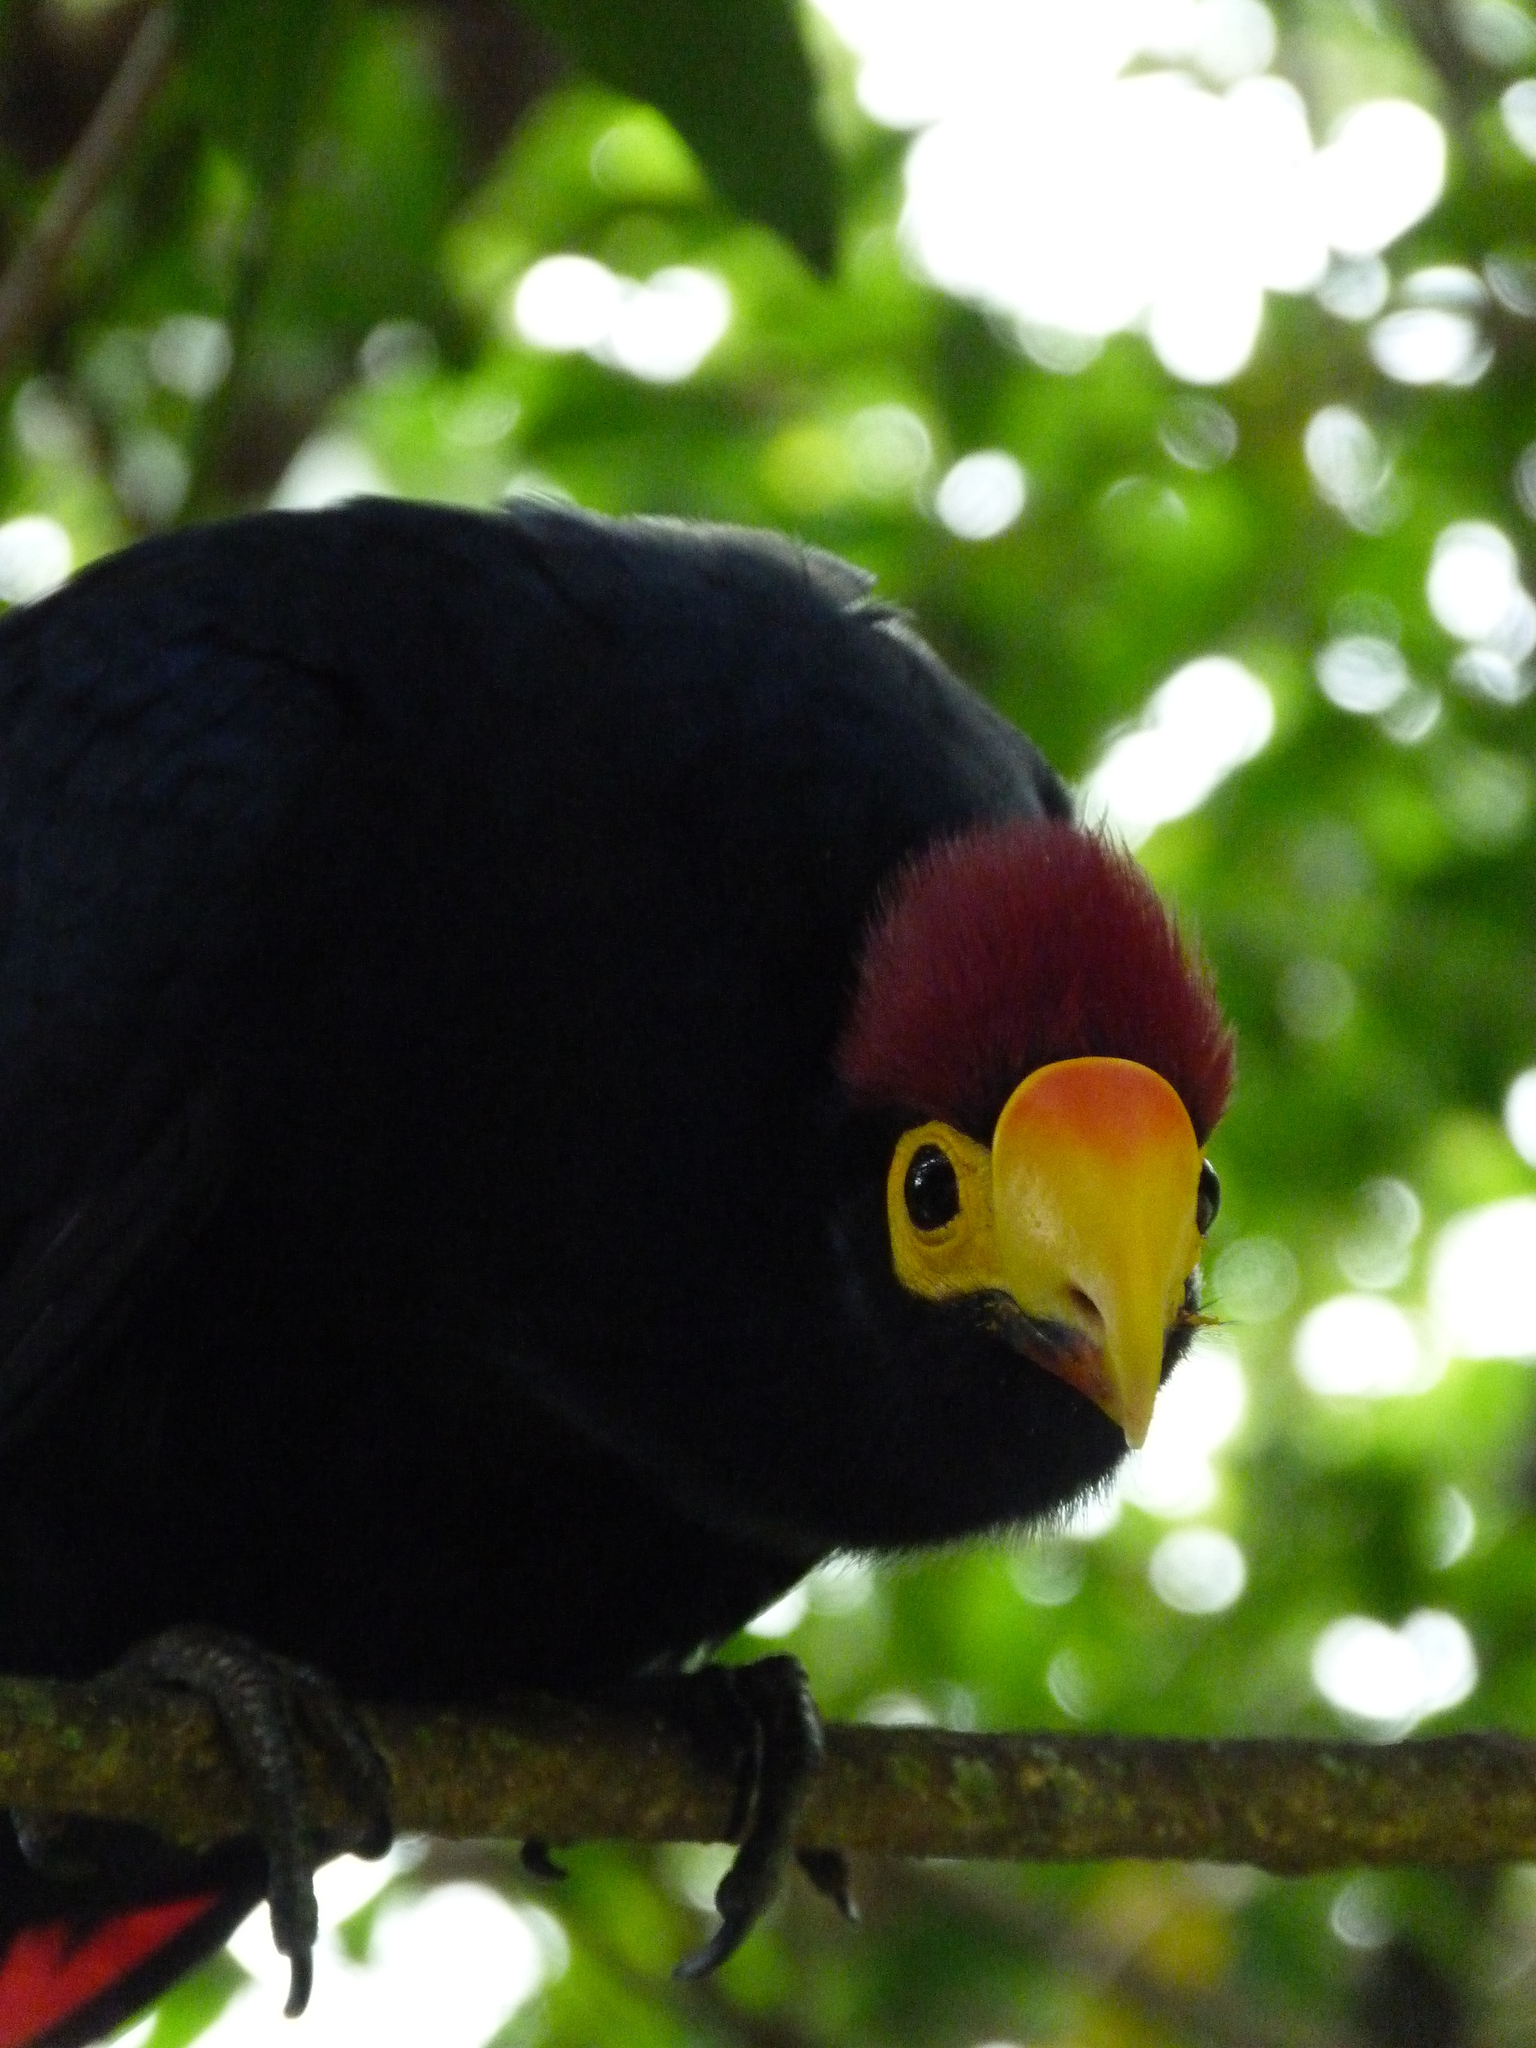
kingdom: Animalia
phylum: Chordata
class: Aves
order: Musophagiformes
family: Musophagidae
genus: Musophaga
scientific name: Musophaga rossae
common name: Ross's turaco
